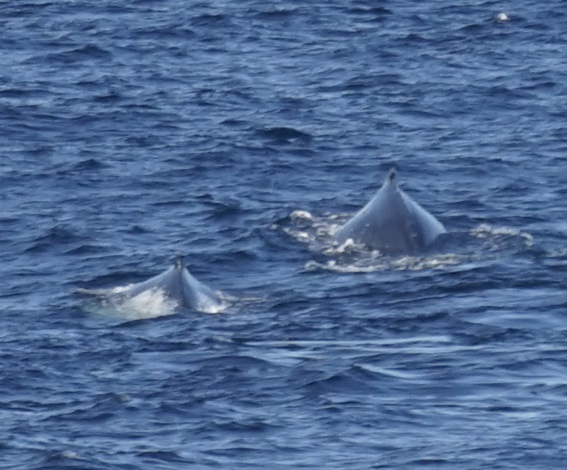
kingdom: Animalia
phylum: Chordata
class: Mammalia
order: Cetacea
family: Balaenopteridae
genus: Megaptera
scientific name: Megaptera novaeangliae
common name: Humpback whale
